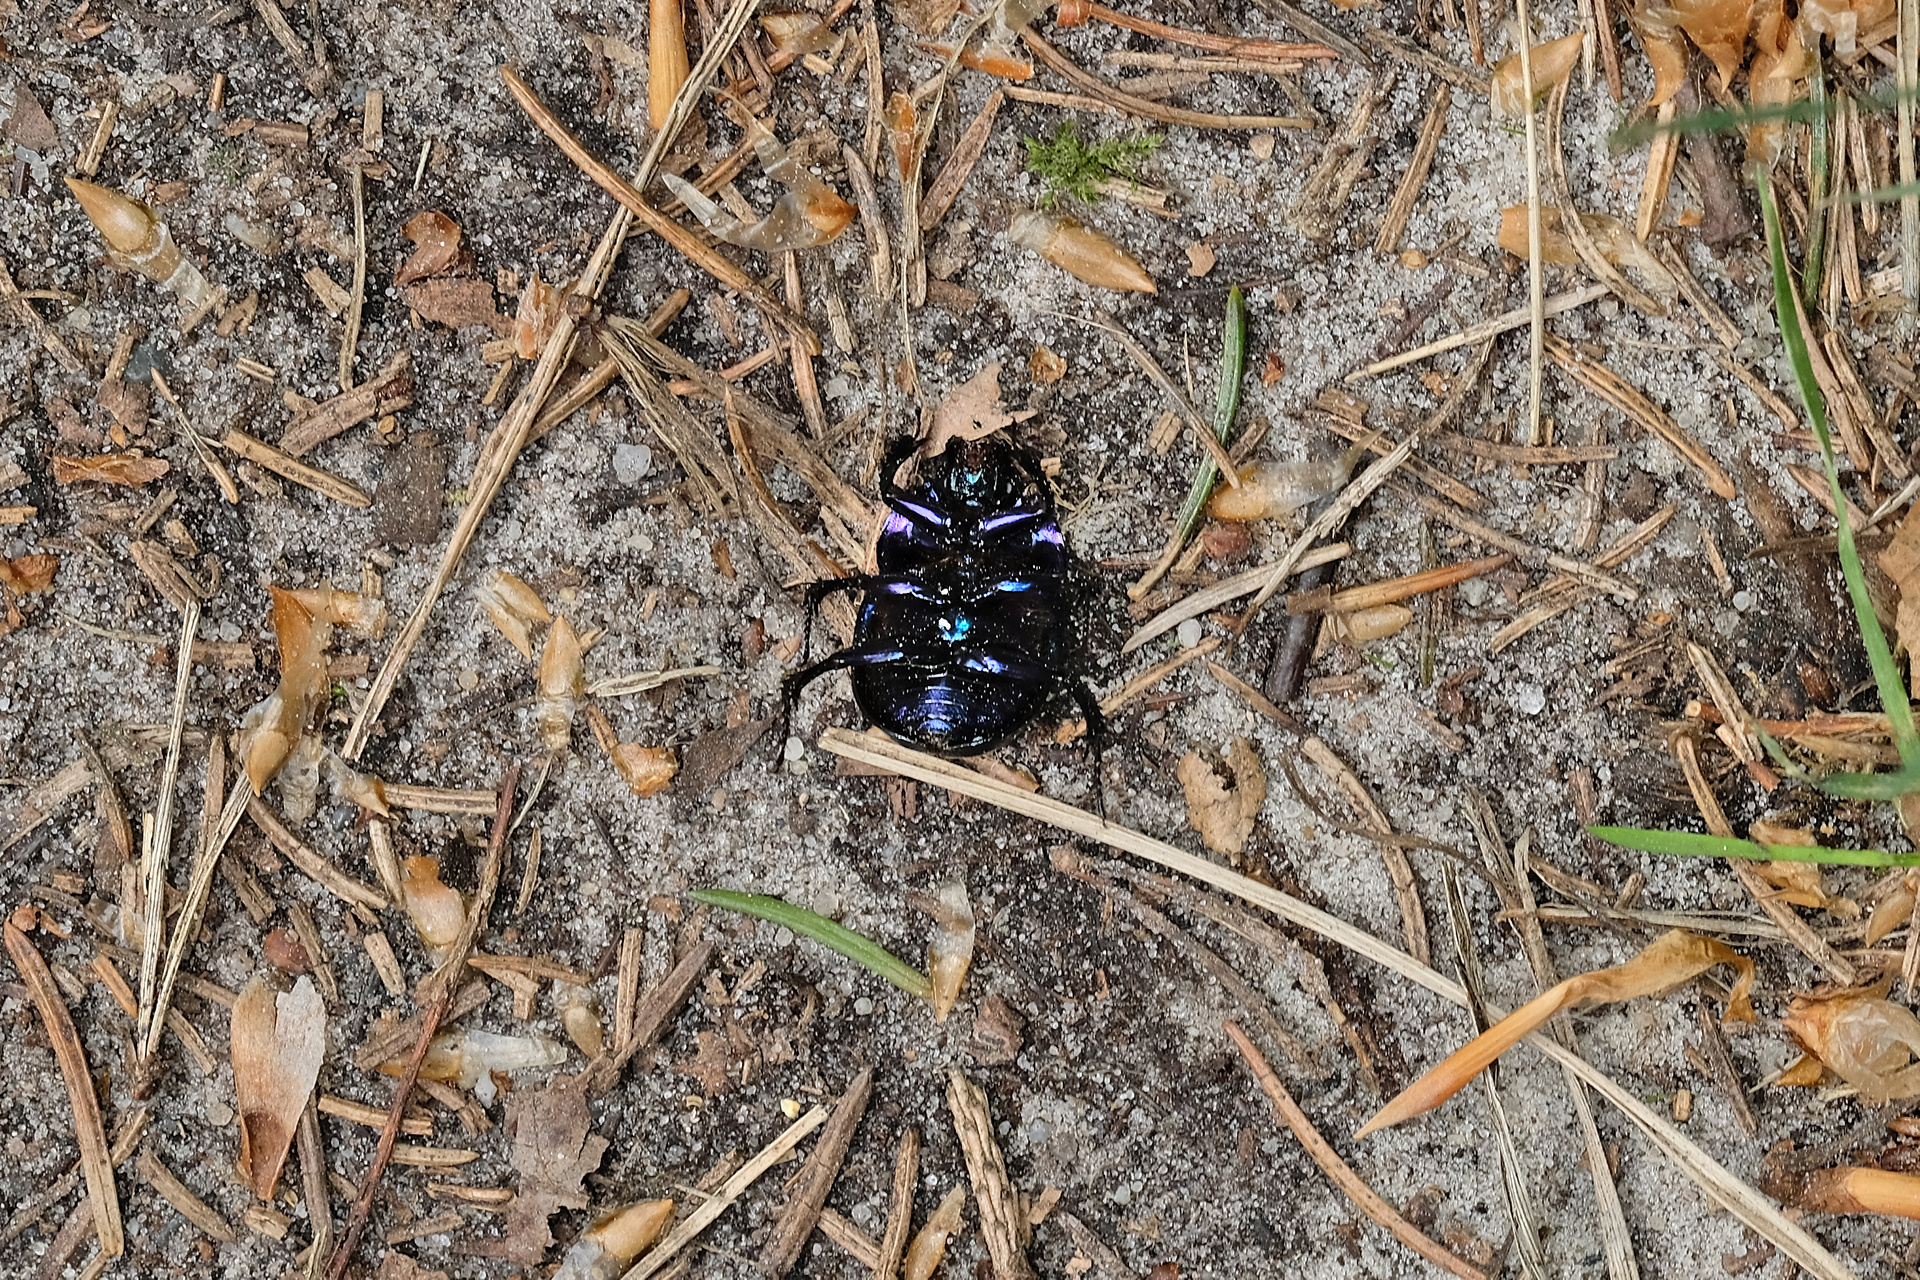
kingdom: Animalia
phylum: Arthropoda
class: Insecta
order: Coleoptera
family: Geotrupidae
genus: Anoplotrupes
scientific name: Anoplotrupes stercorosus
